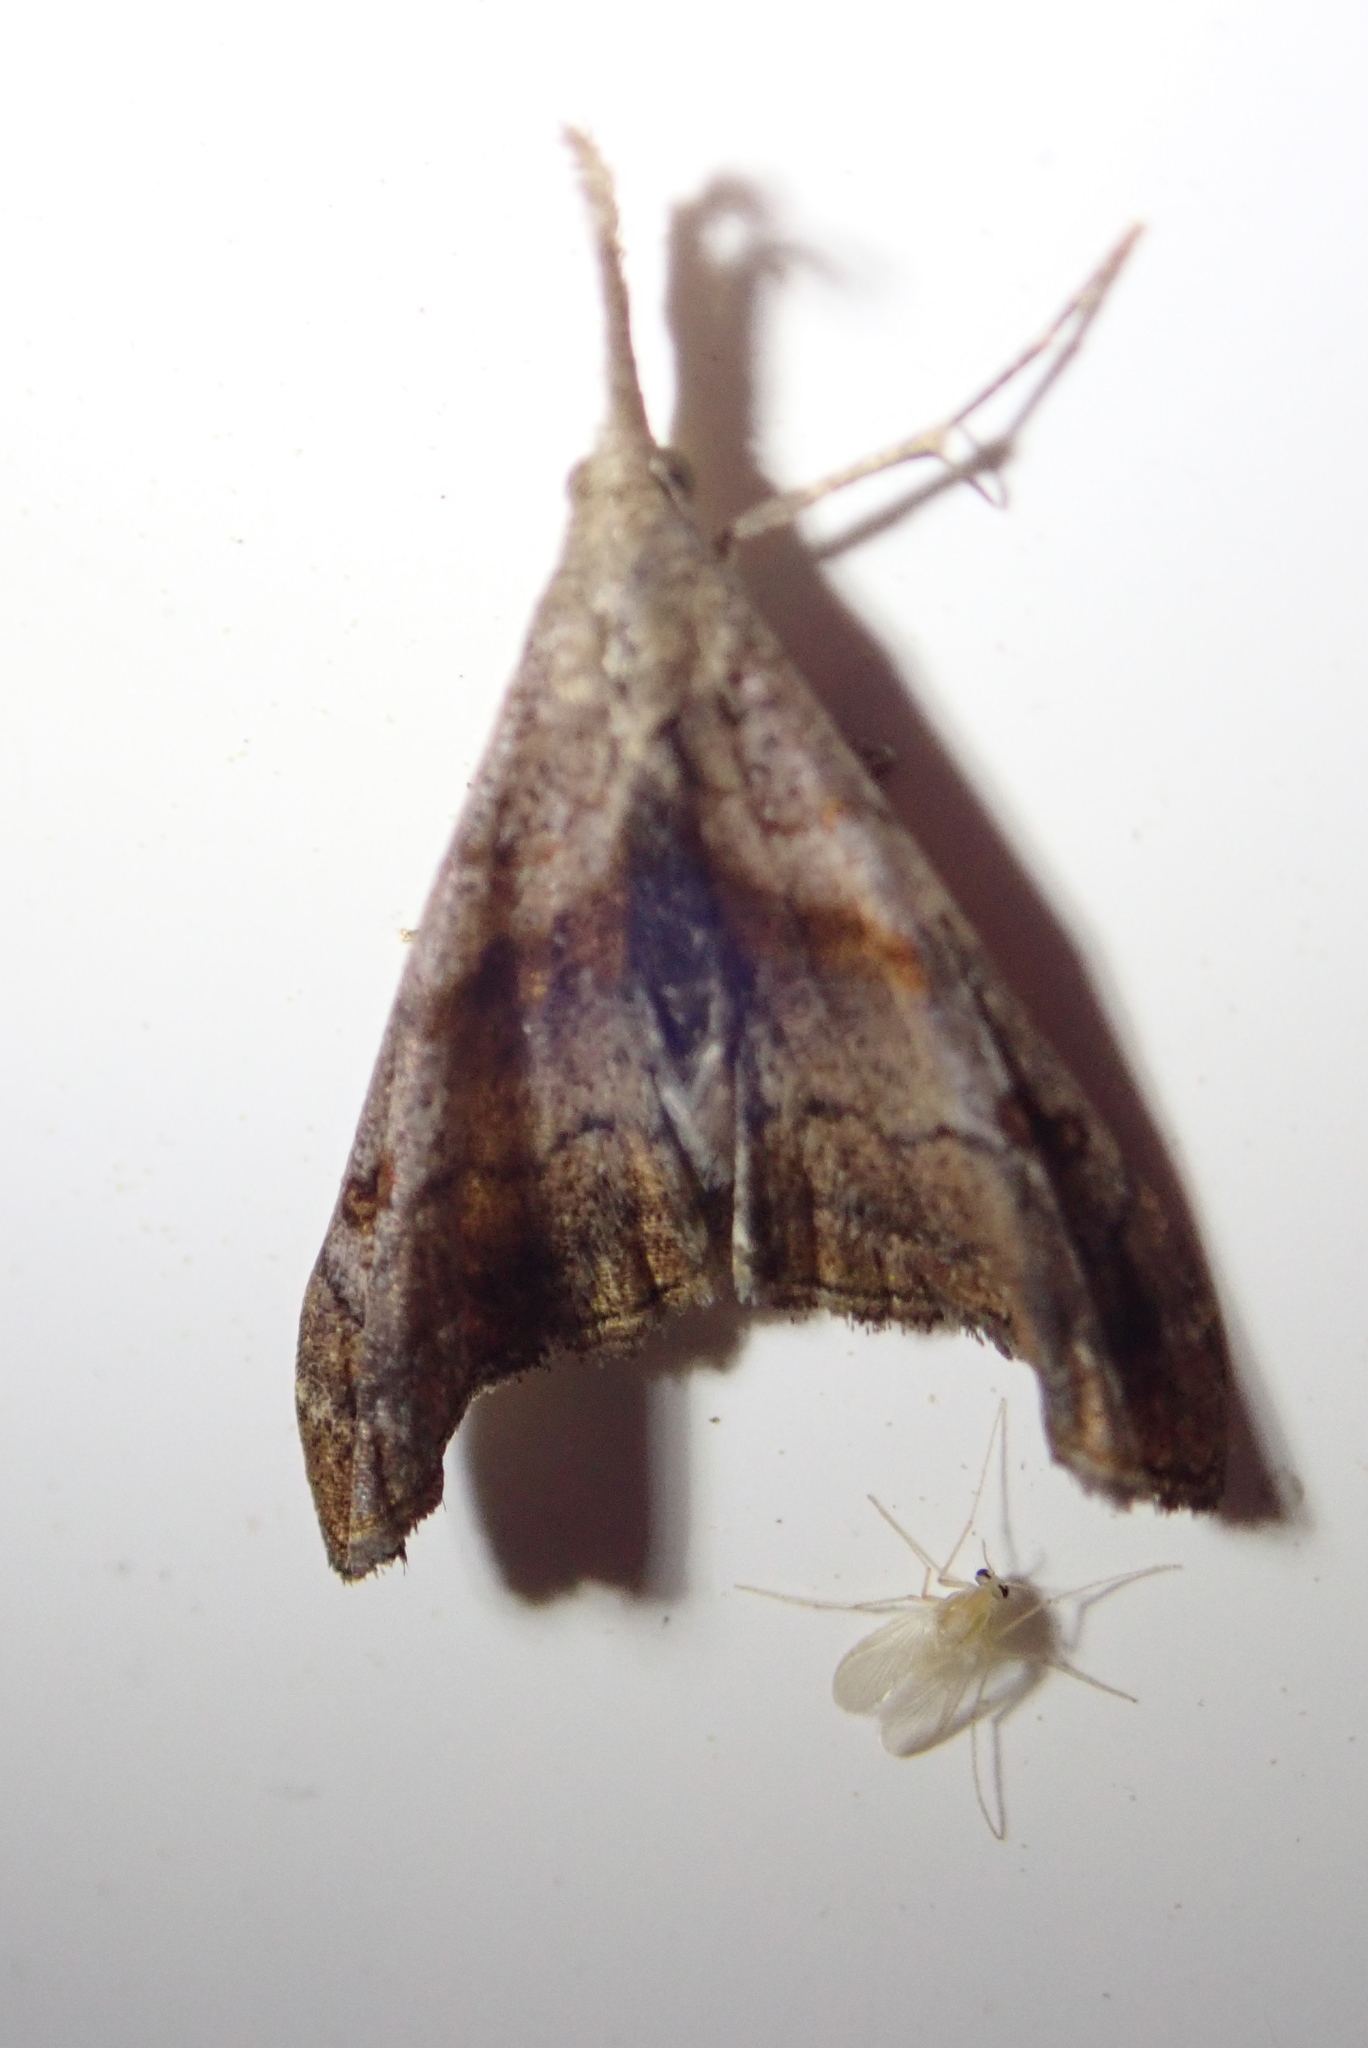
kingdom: Animalia
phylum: Arthropoda
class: Insecta
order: Lepidoptera
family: Erebidae
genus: Palthis
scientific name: Palthis angulalis
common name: Dark-spotted palthis moth
